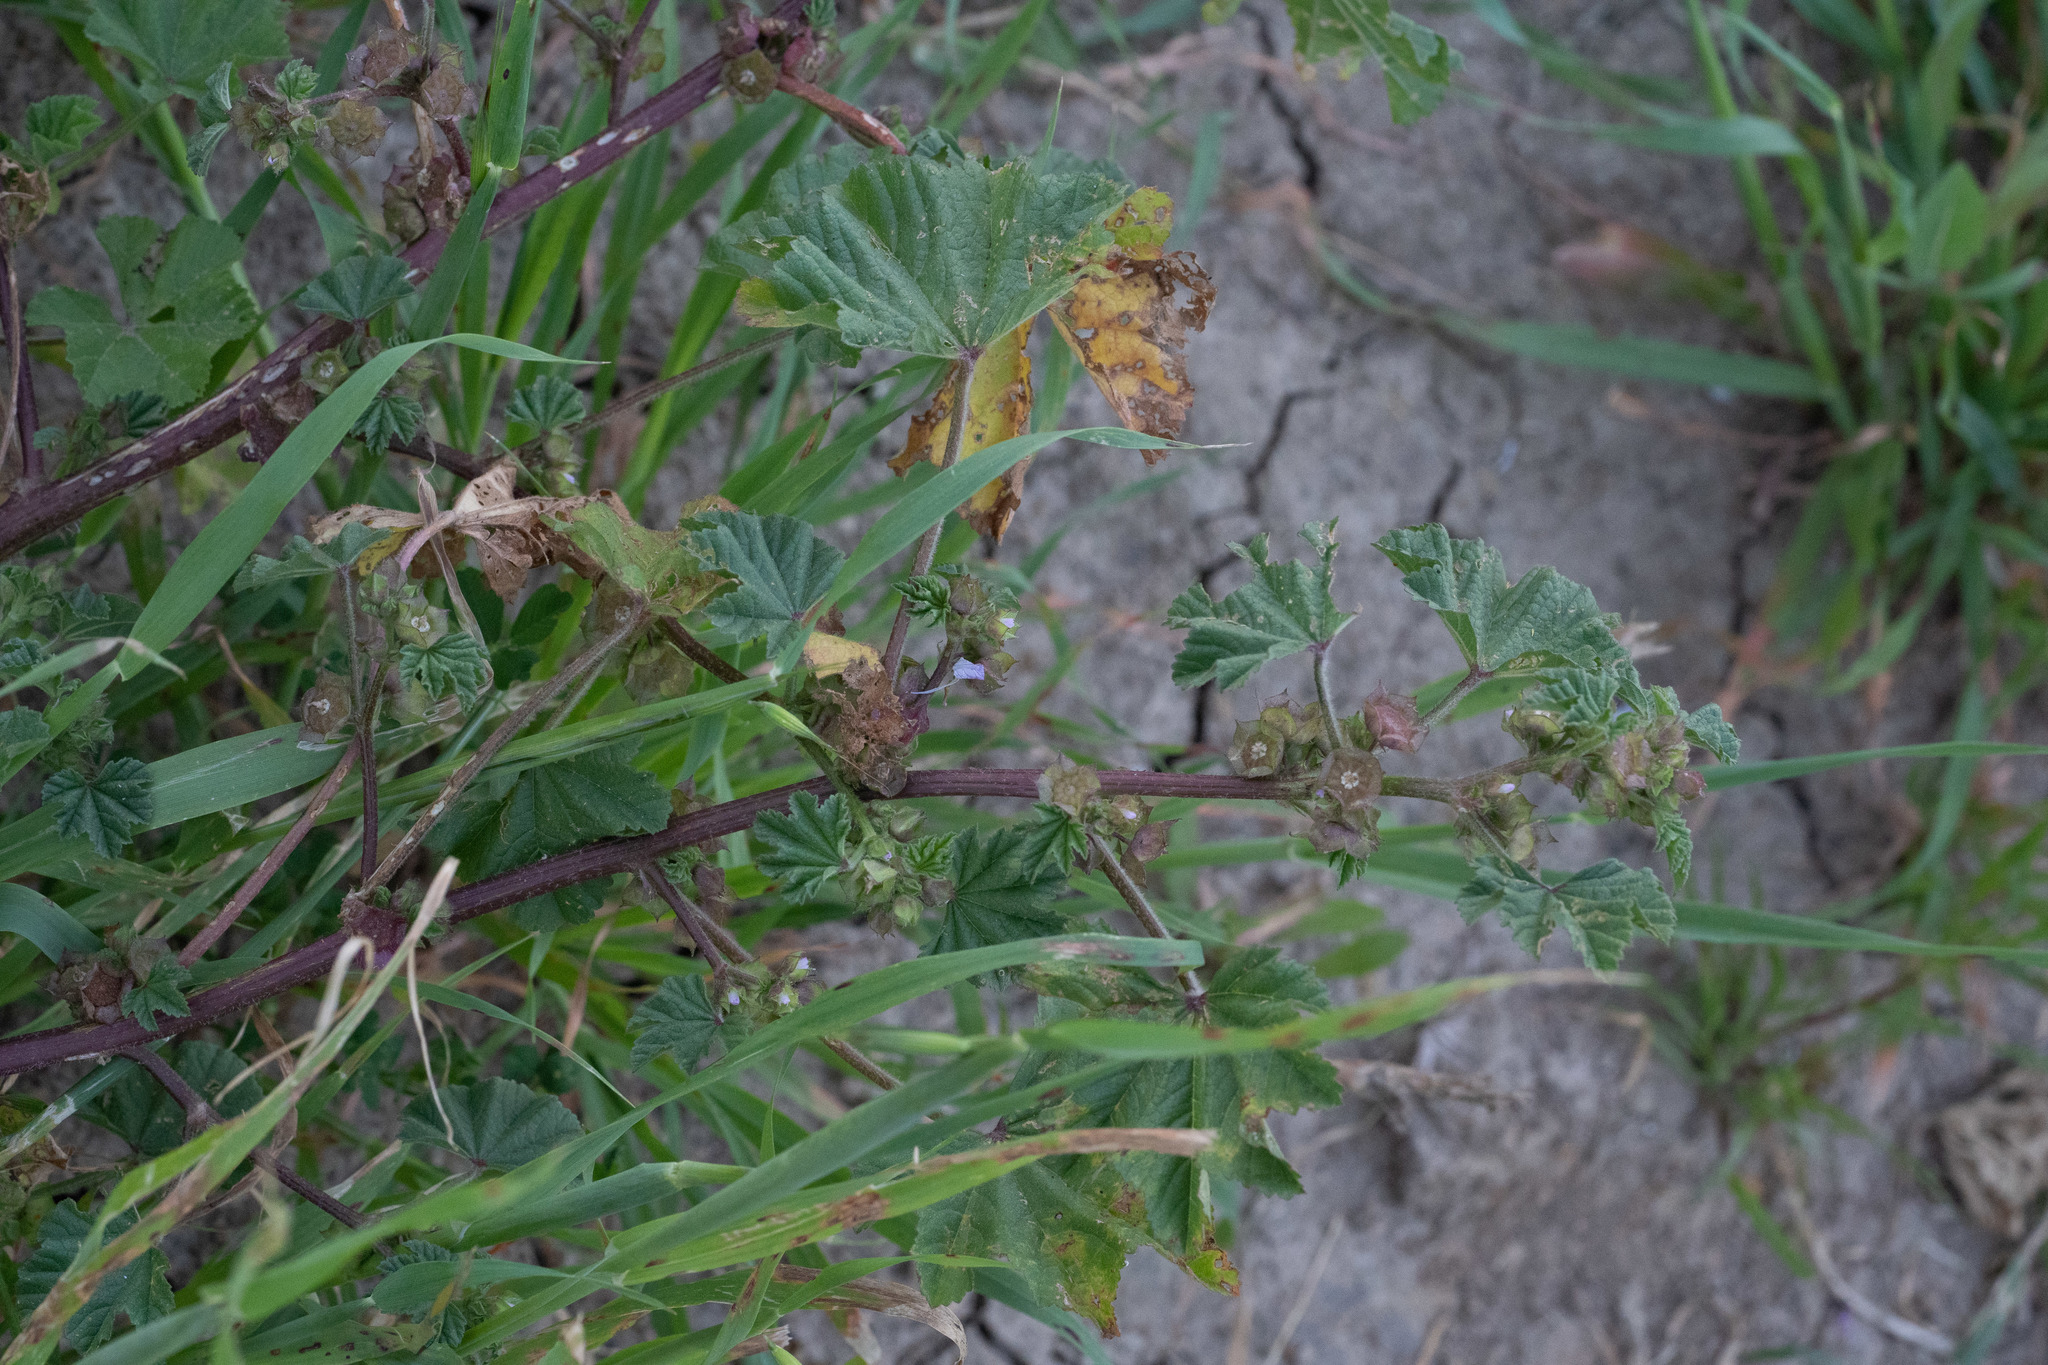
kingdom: Plantae
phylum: Tracheophyta
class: Magnoliopsida
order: Malvales
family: Malvaceae
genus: Malva
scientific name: Malva parviflora
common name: Least mallow
